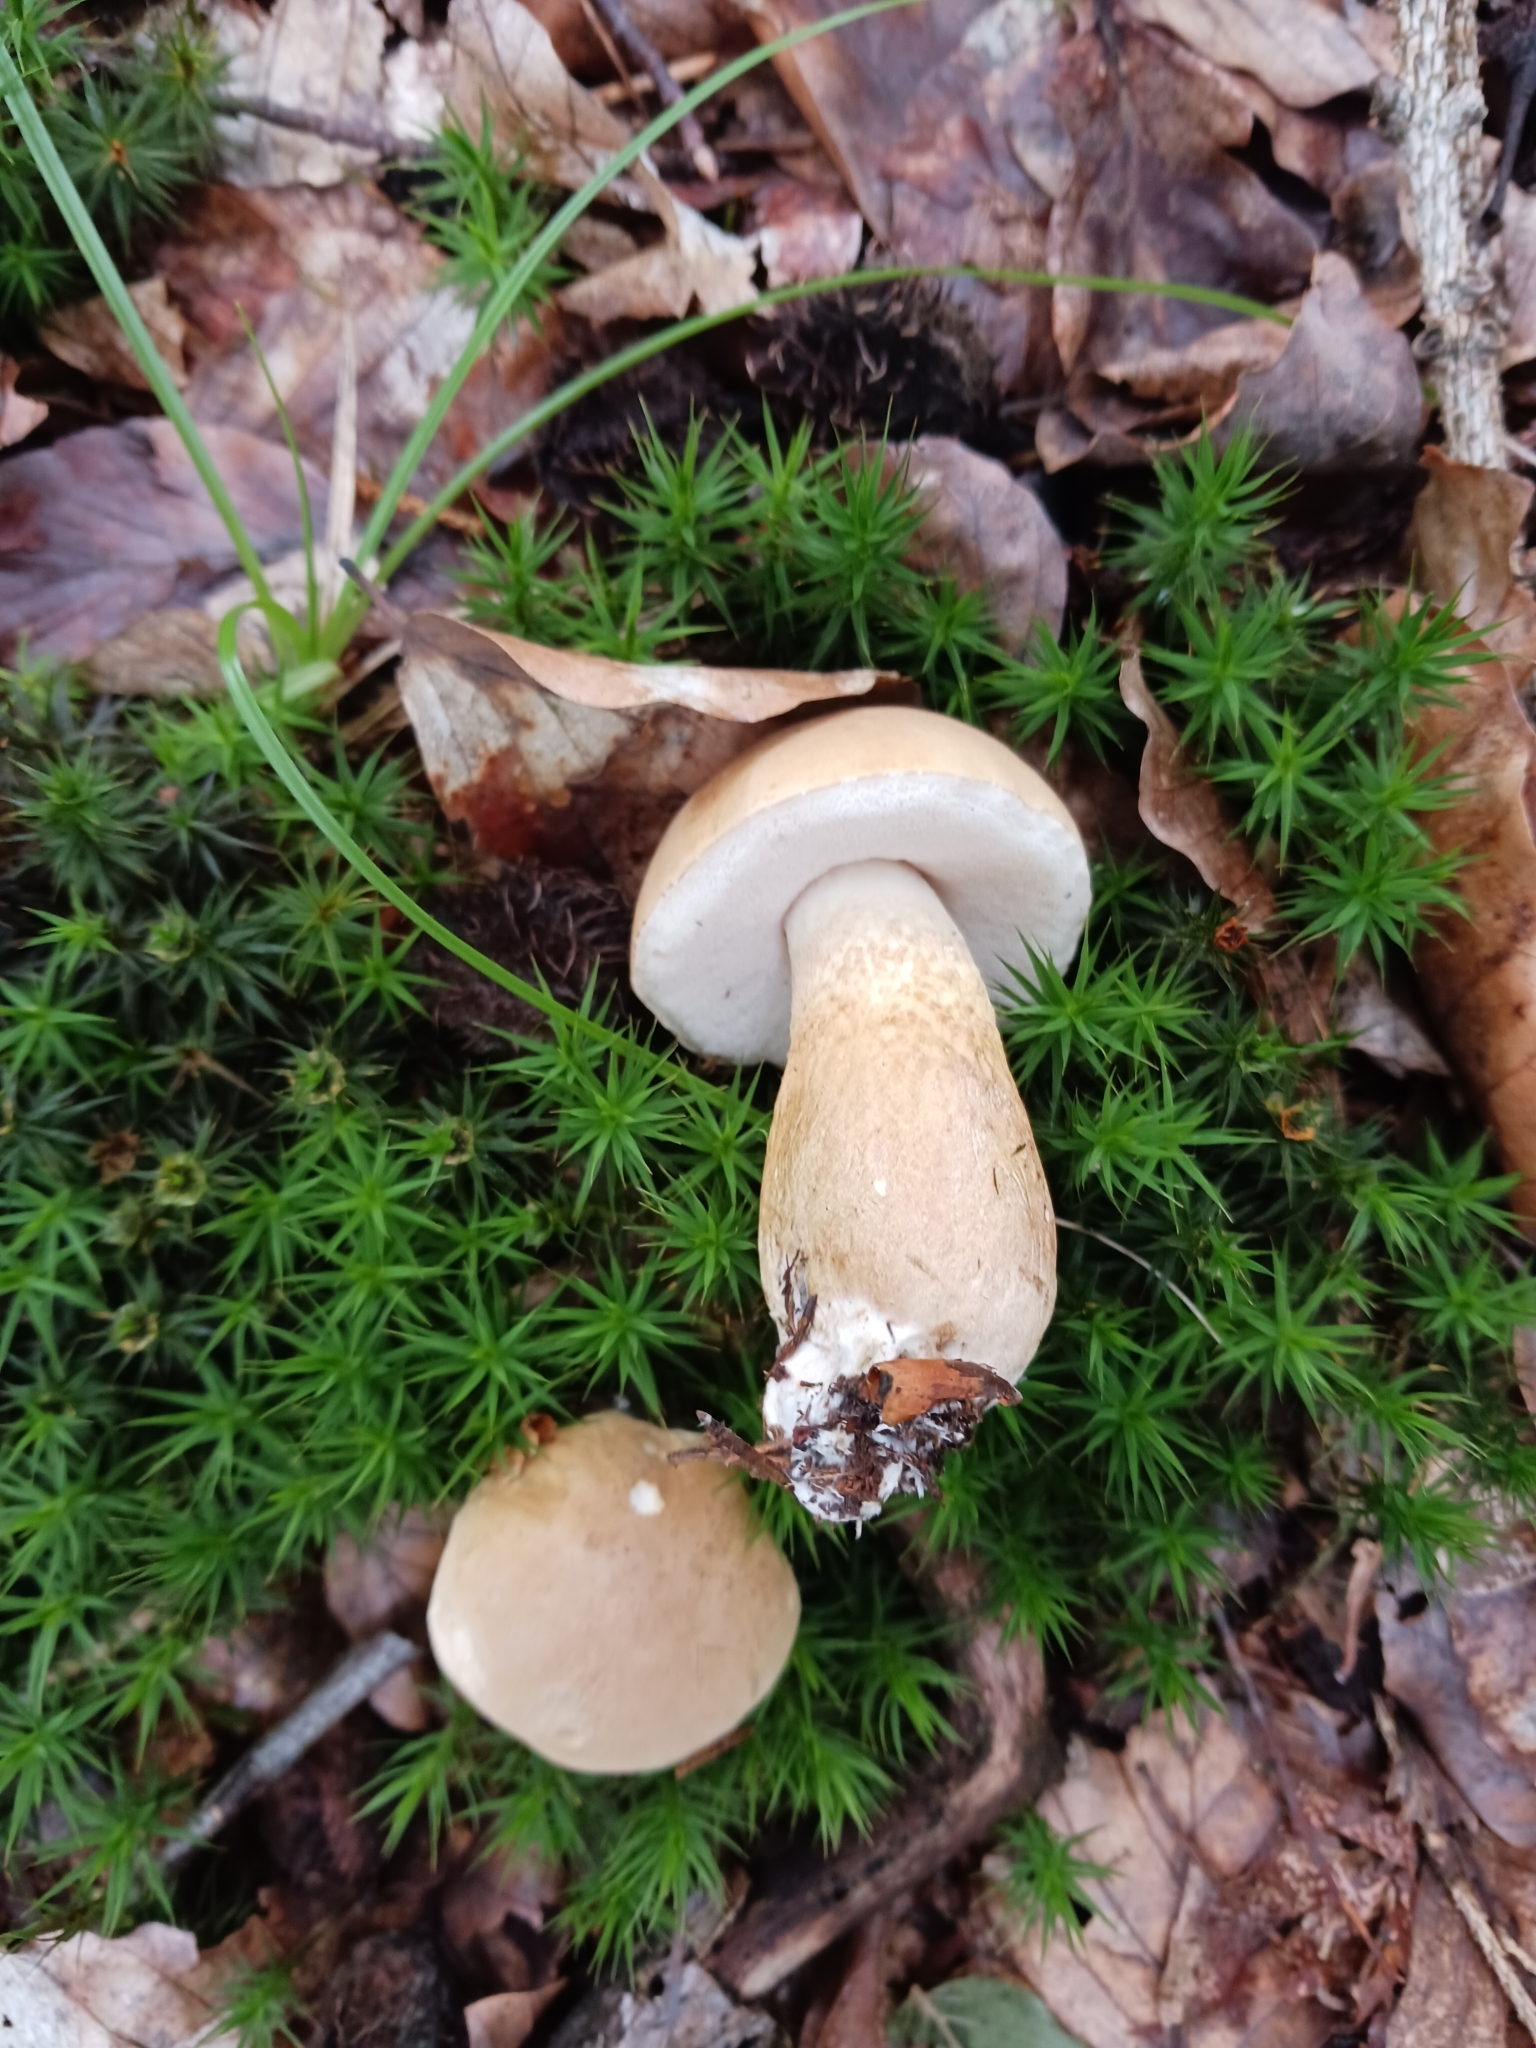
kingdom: Fungi
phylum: Basidiomycota
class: Agaricomycetes
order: Boletales
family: Boletaceae
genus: Tylopilus
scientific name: Tylopilus felleus
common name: Bitter bolete
